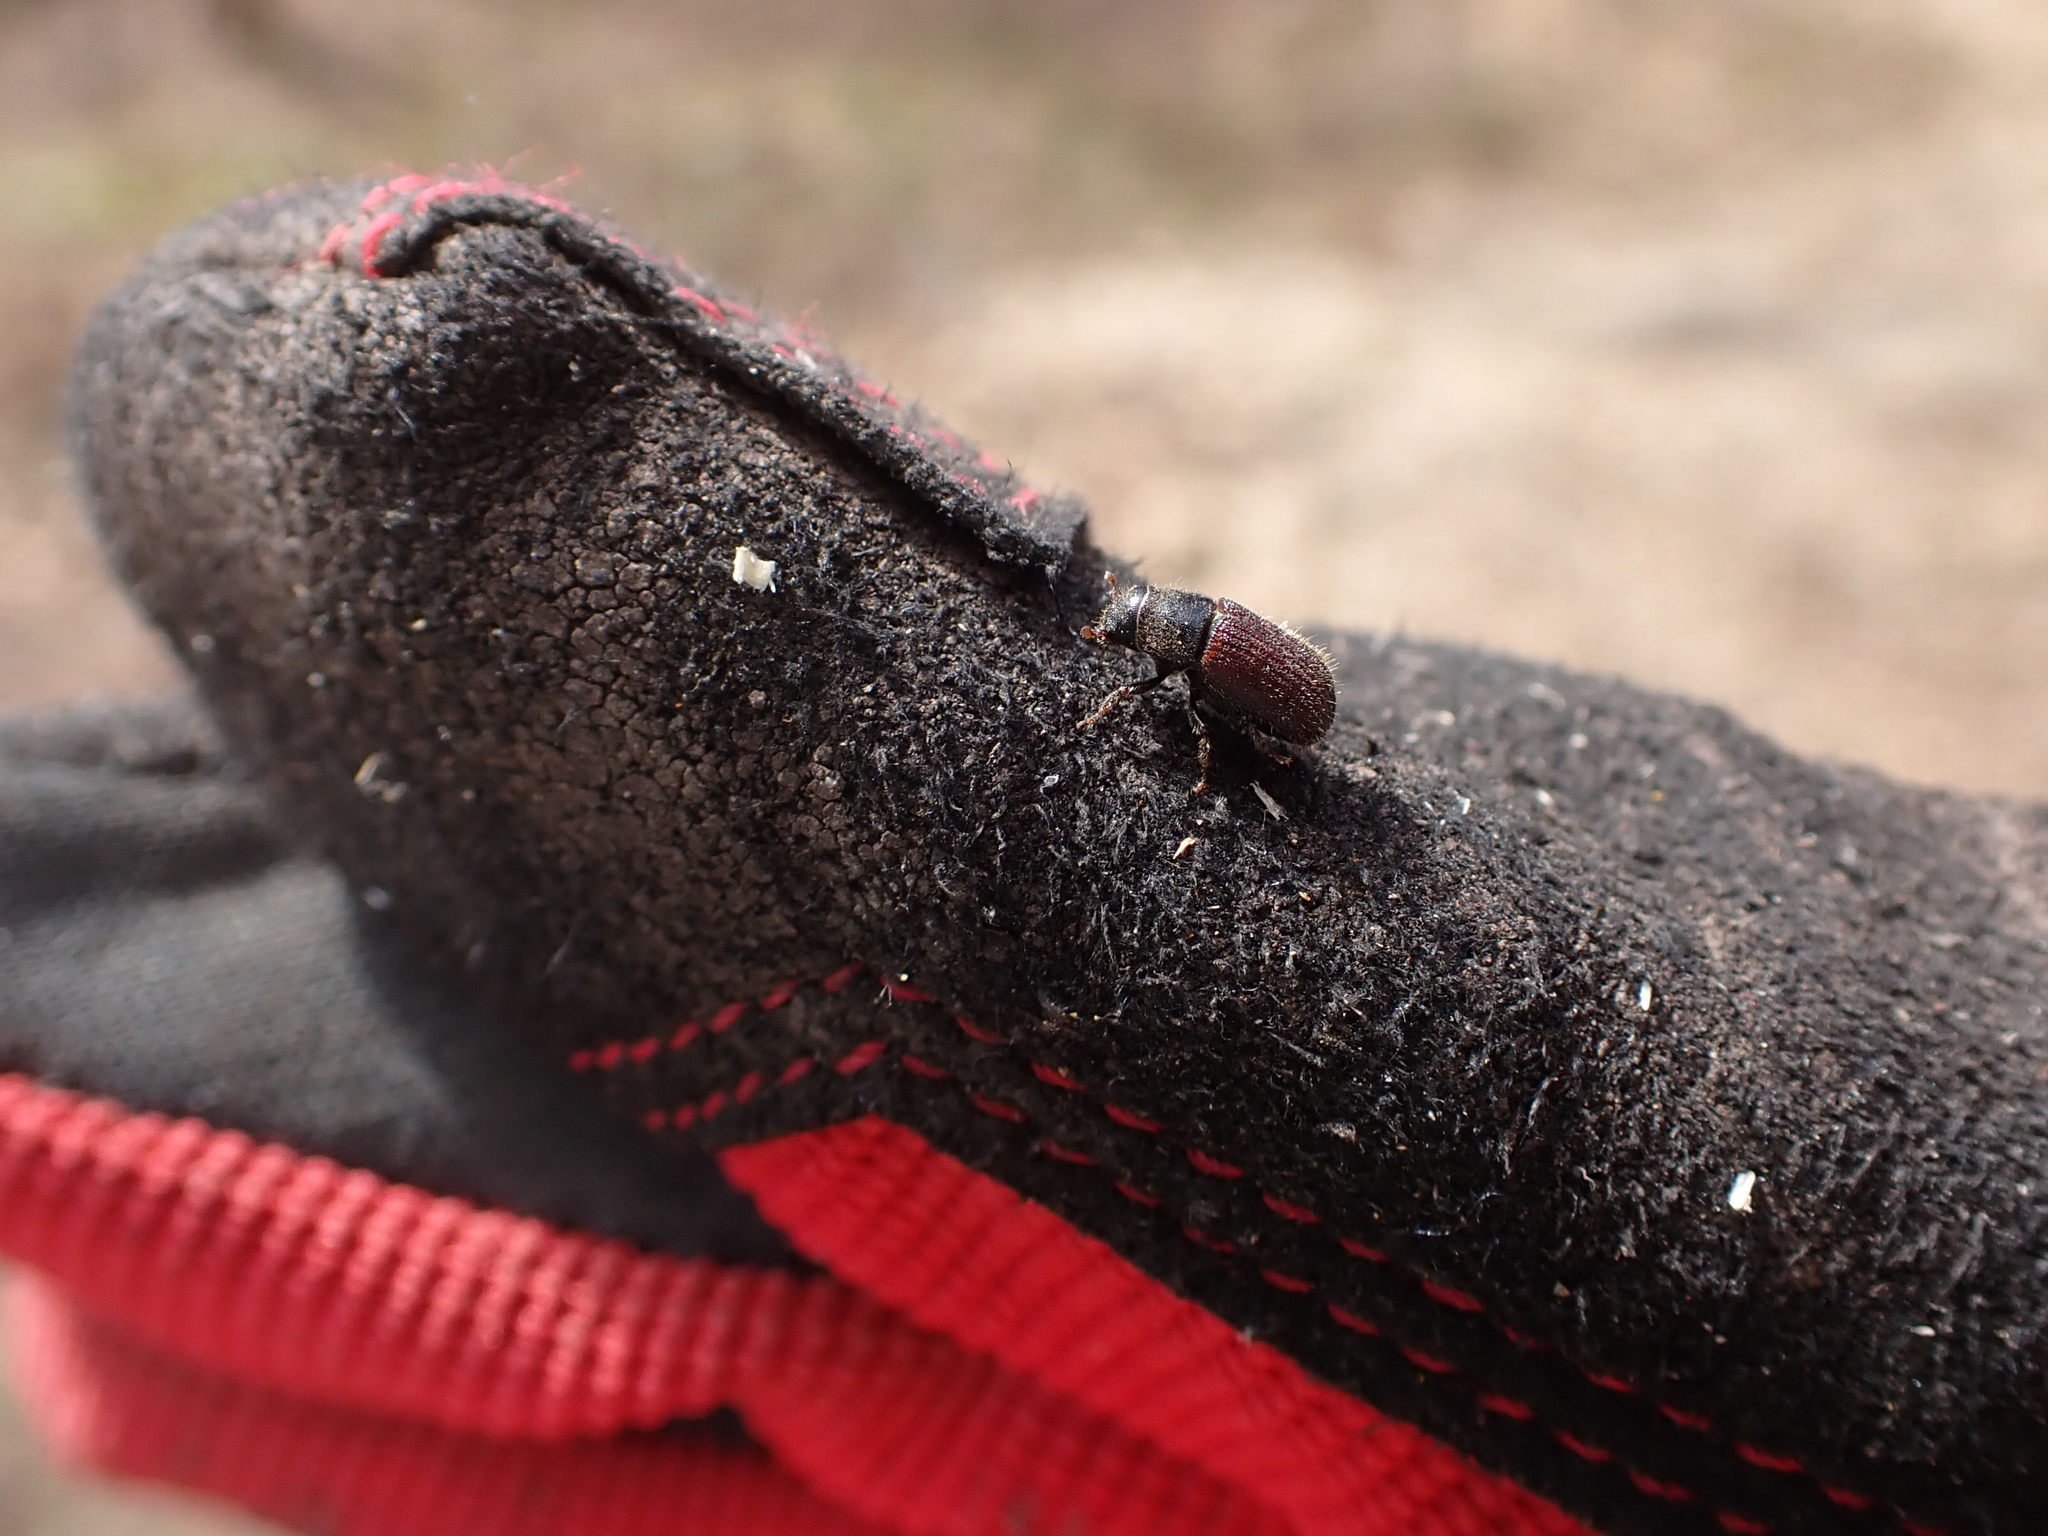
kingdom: Animalia
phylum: Arthropoda
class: Insecta
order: Coleoptera
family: Curculionidae
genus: Dendroctonus
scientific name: Dendroctonus rufipennis
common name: Spruce beetle
